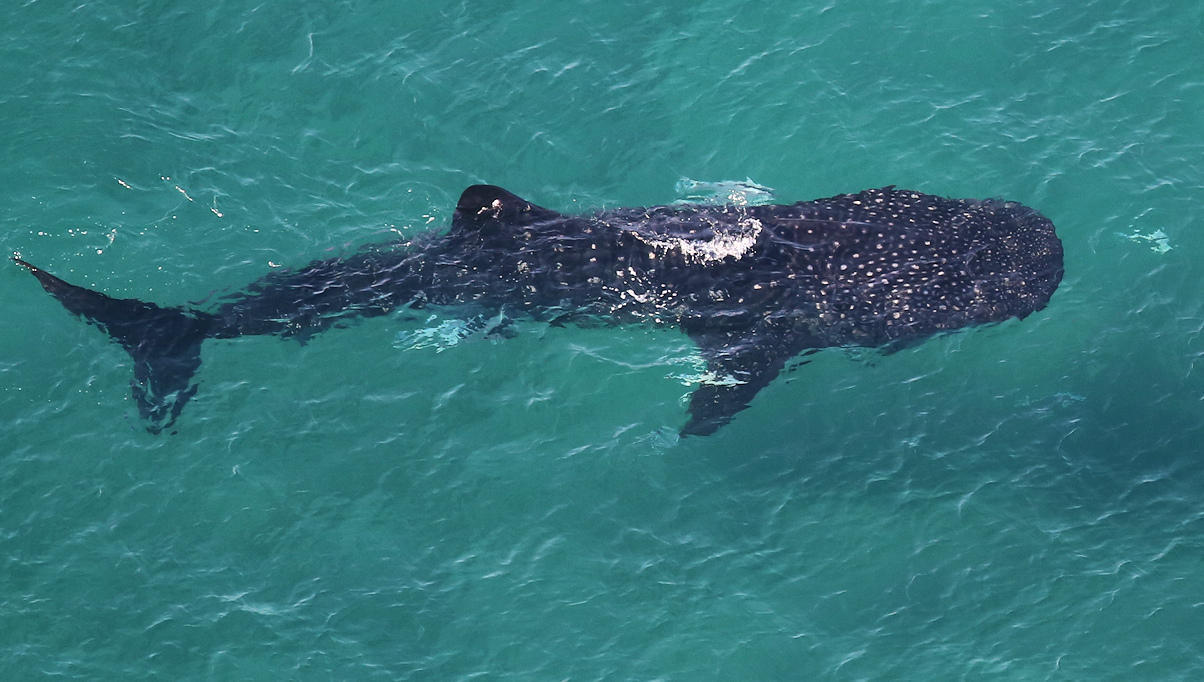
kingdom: Animalia
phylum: Chordata
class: Elasmobranchii
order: Orectolobiformes
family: Rhincodontidae
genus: Rhincodon
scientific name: Rhincodon typus
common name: Whale shark
